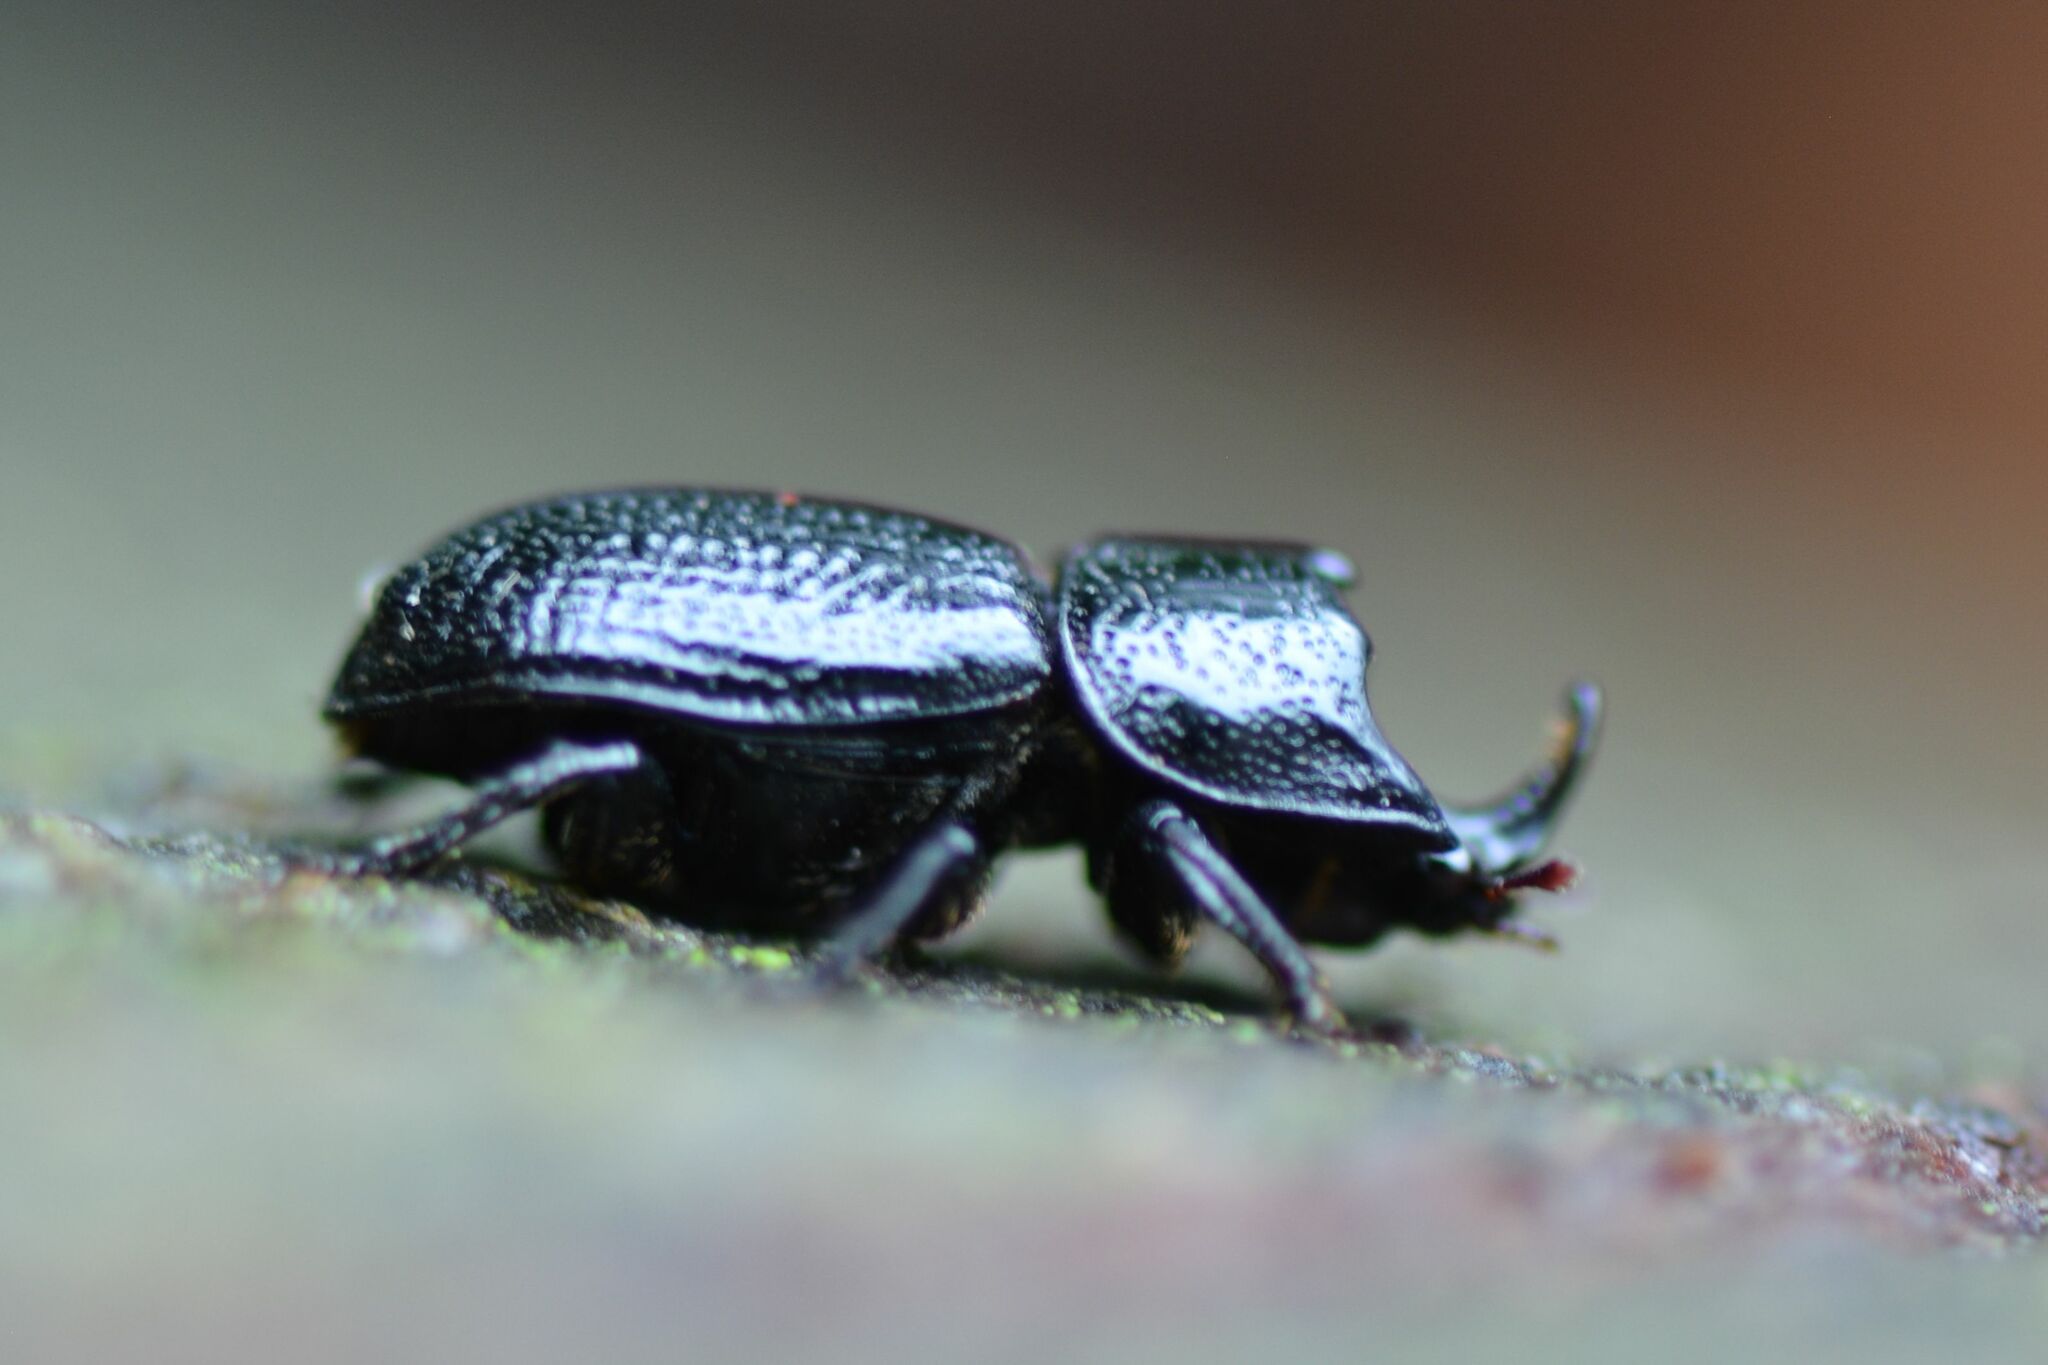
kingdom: Animalia
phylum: Arthropoda
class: Insecta
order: Coleoptera
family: Lucanidae
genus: Sinodendron
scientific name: Sinodendron cylindricum
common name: Rhinoceros beetle
